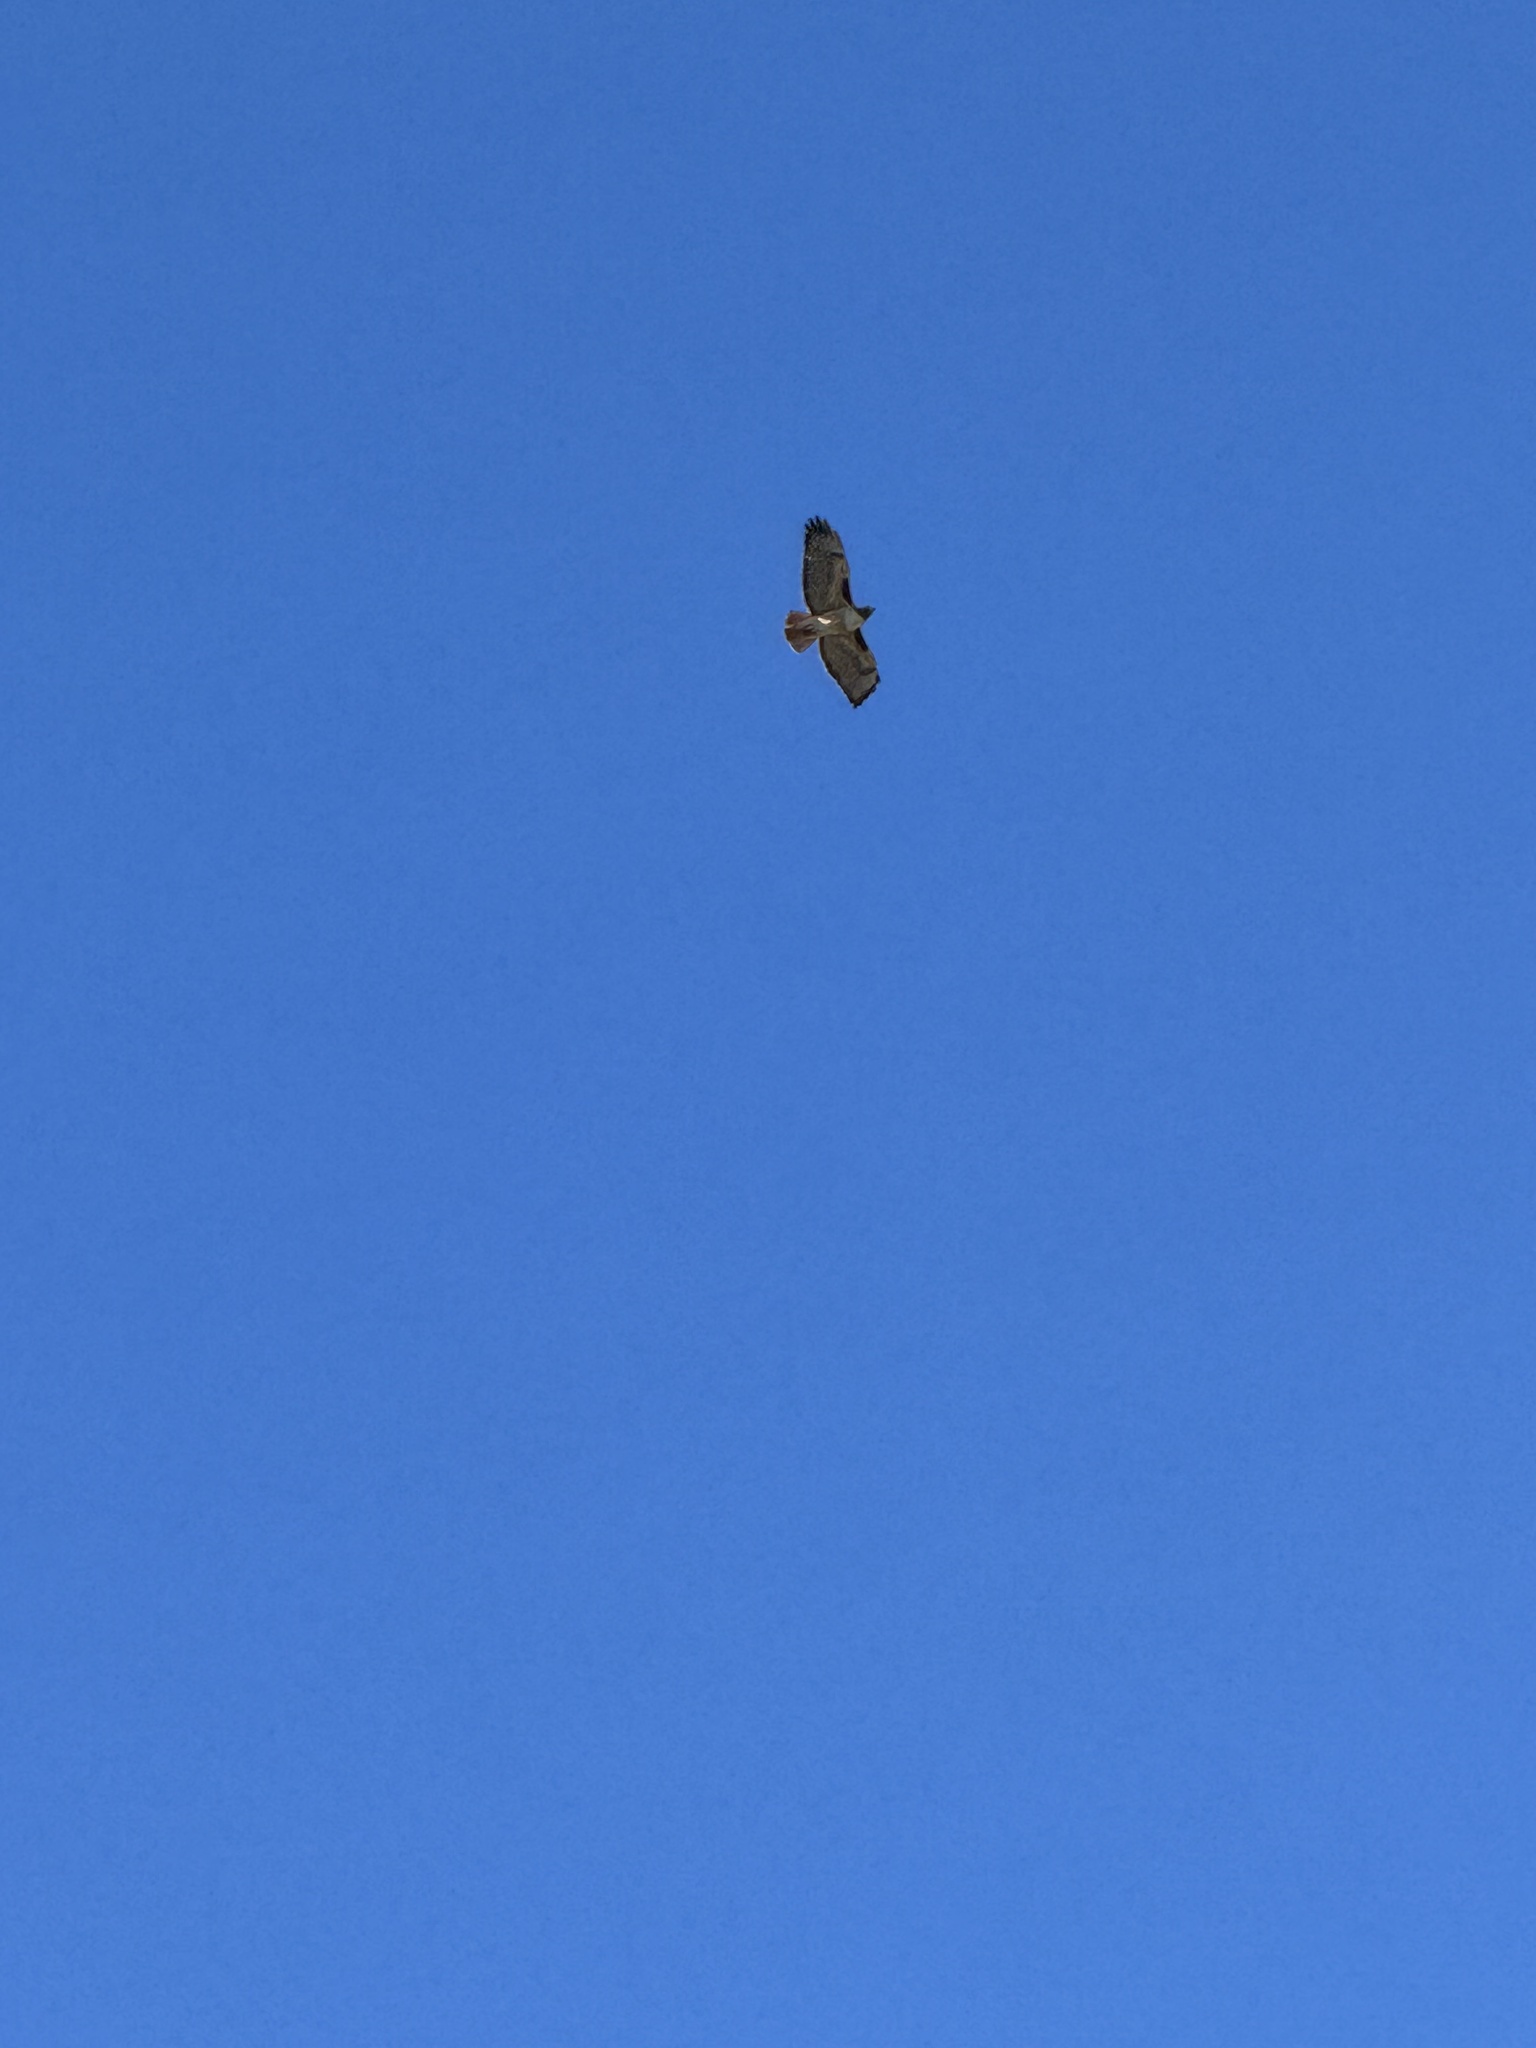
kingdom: Animalia
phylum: Chordata
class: Aves
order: Accipitriformes
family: Accipitridae
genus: Buteo
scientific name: Buteo jamaicensis
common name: Red-tailed hawk
